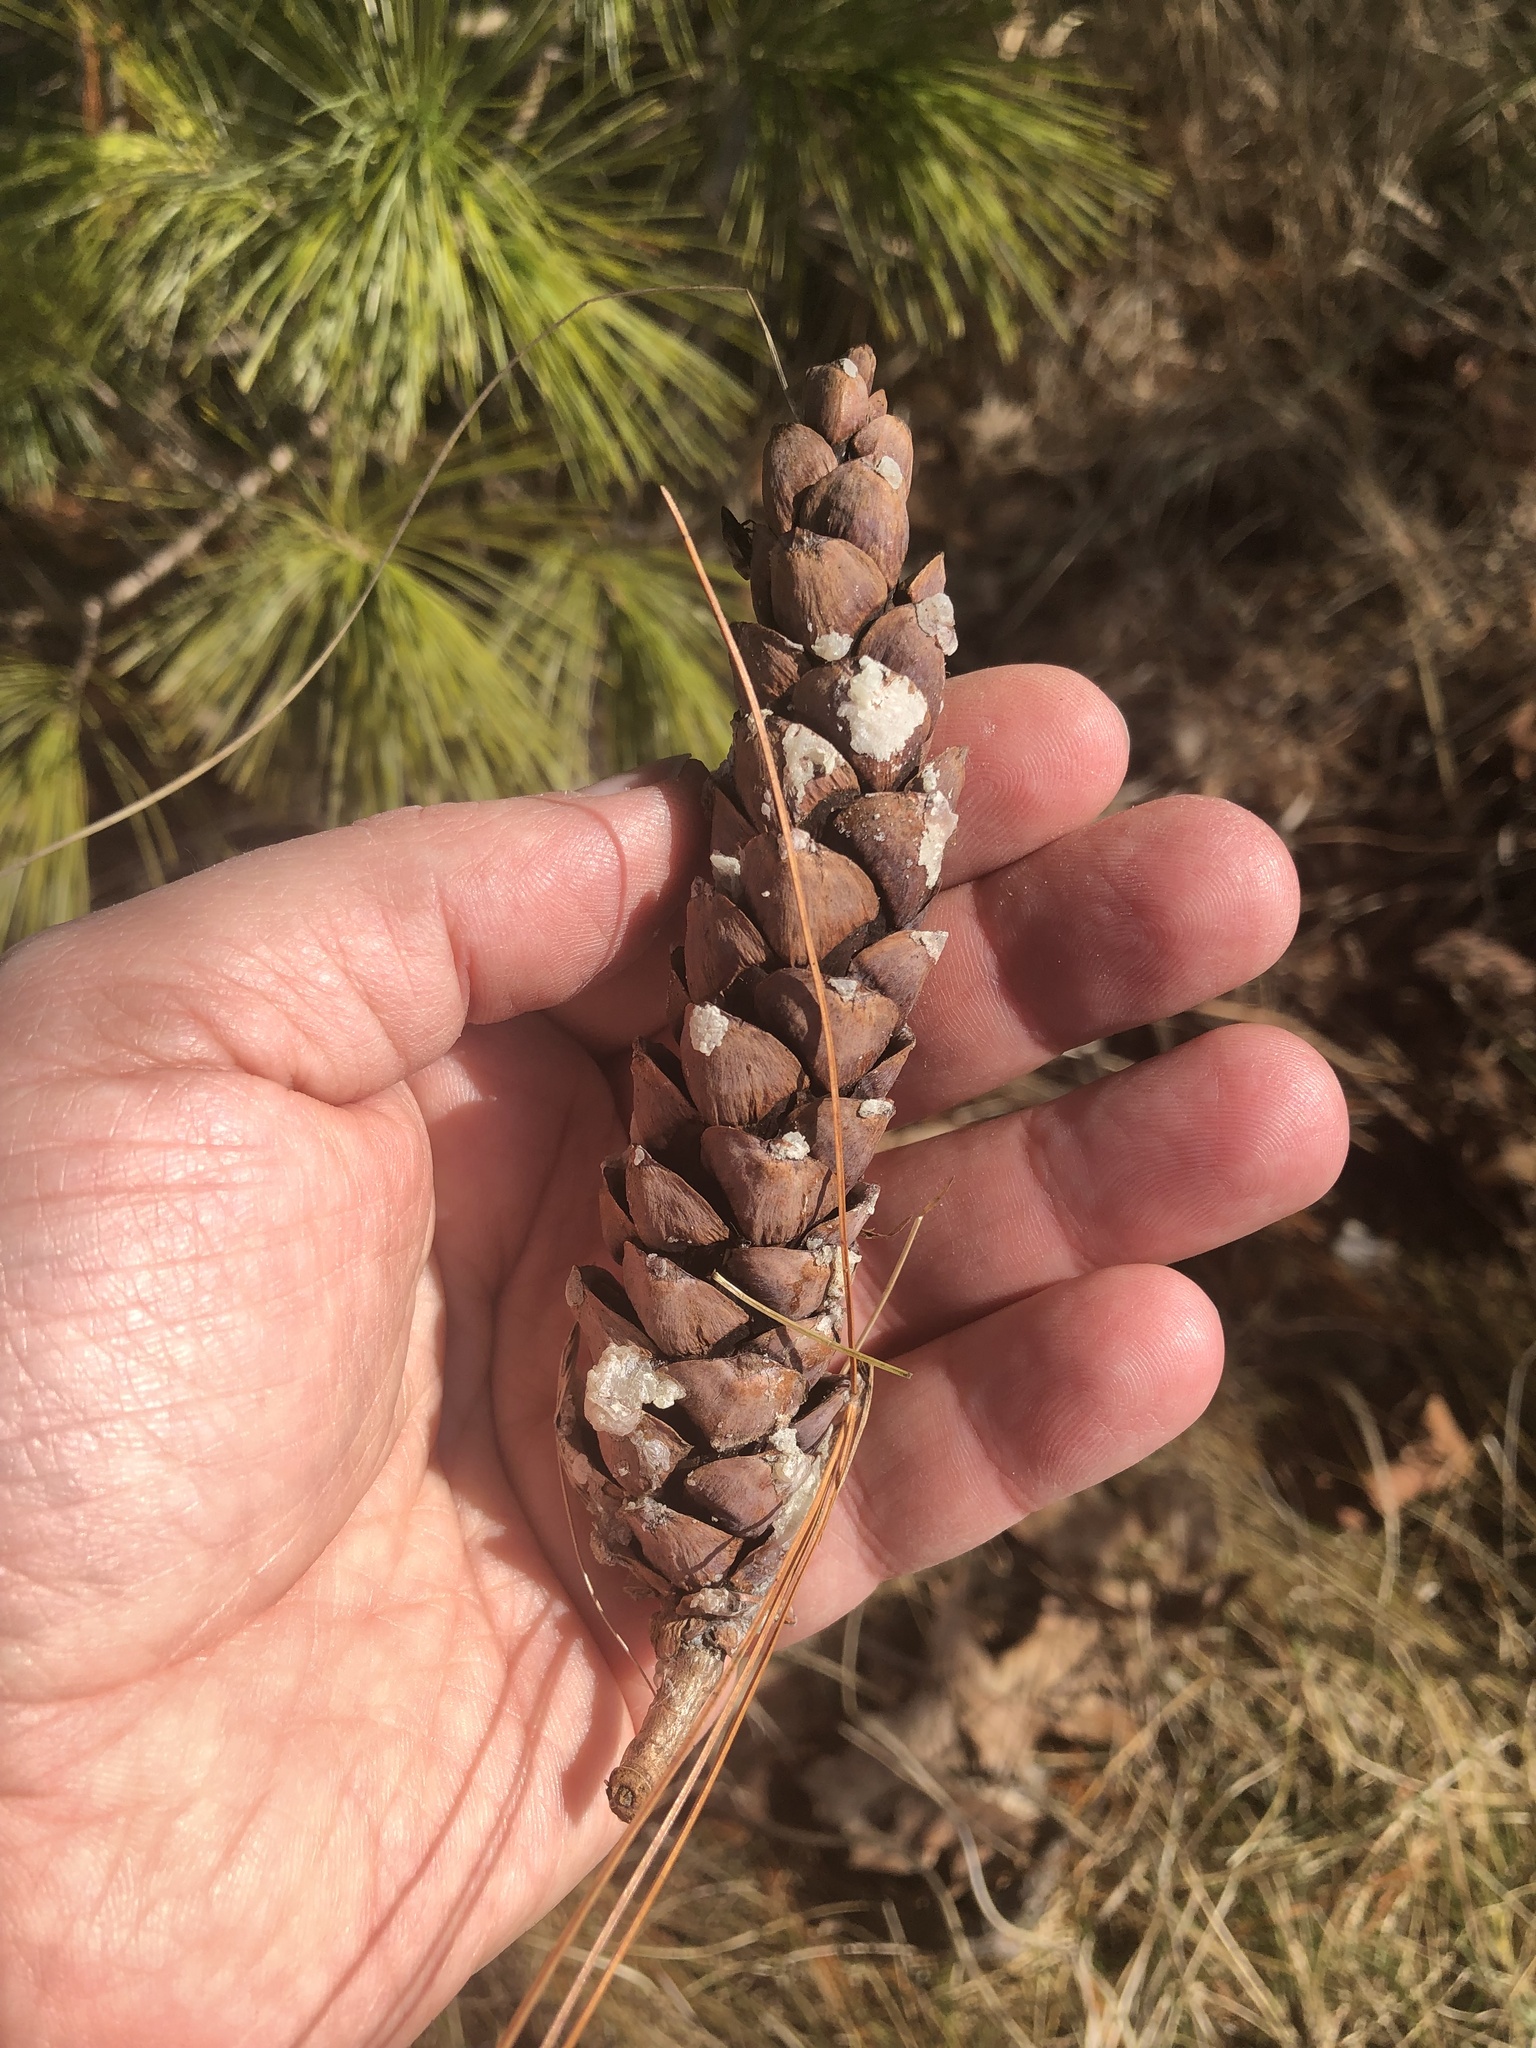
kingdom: Plantae
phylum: Tracheophyta
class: Pinopsida
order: Pinales
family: Pinaceae
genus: Pinus
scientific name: Pinus strobus
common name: Weymouth pine
